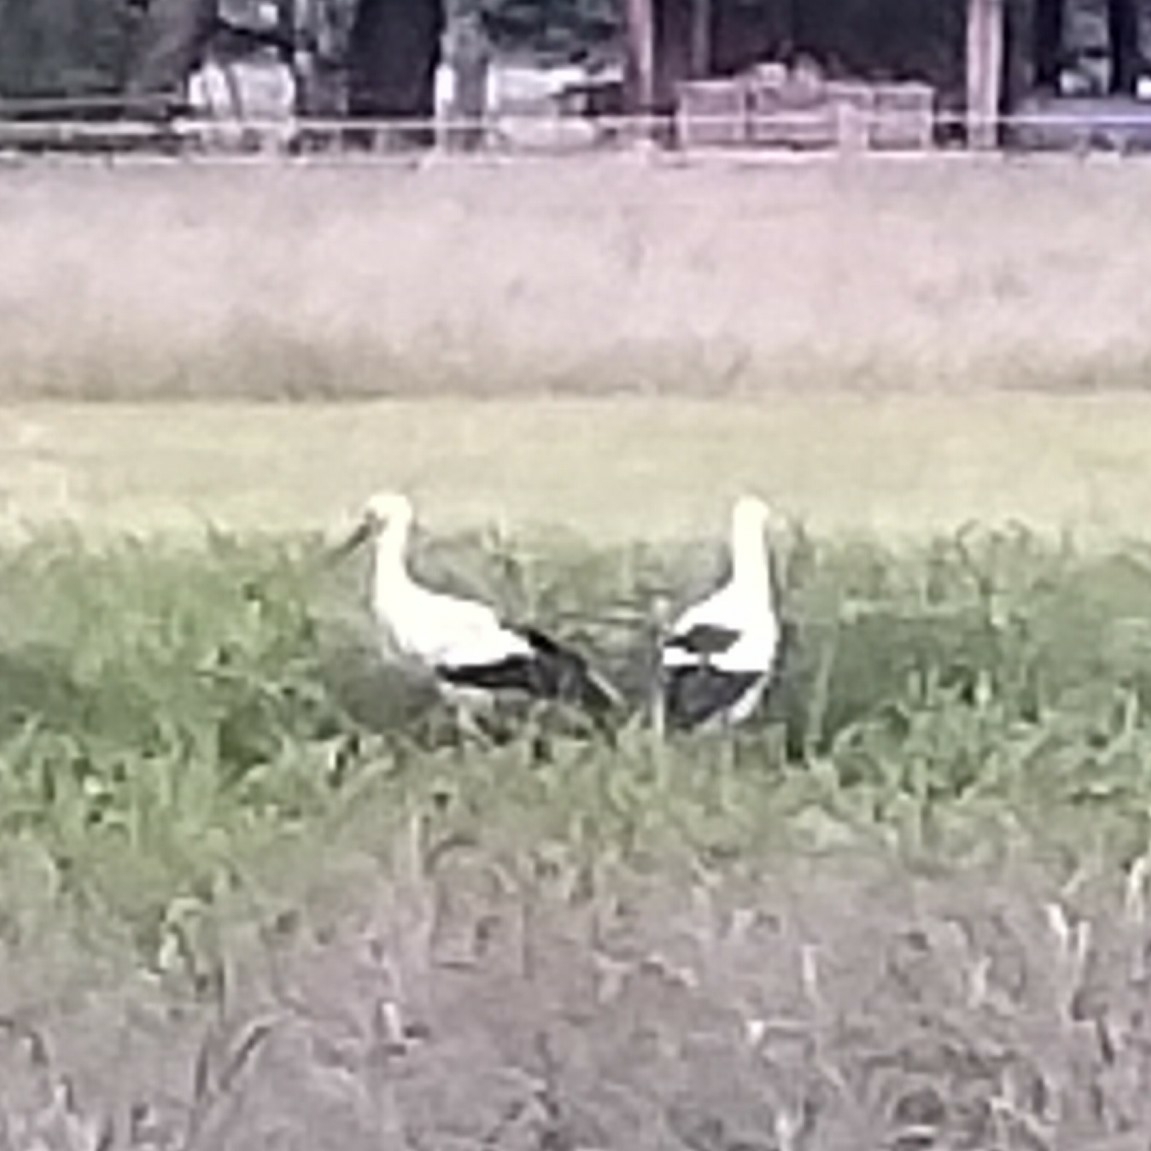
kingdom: Animalia
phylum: Chordata
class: Aves
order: Ciconiiformes
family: Ciconiidae
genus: Ciconia
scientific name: Ciconia ciconia
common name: White stork
